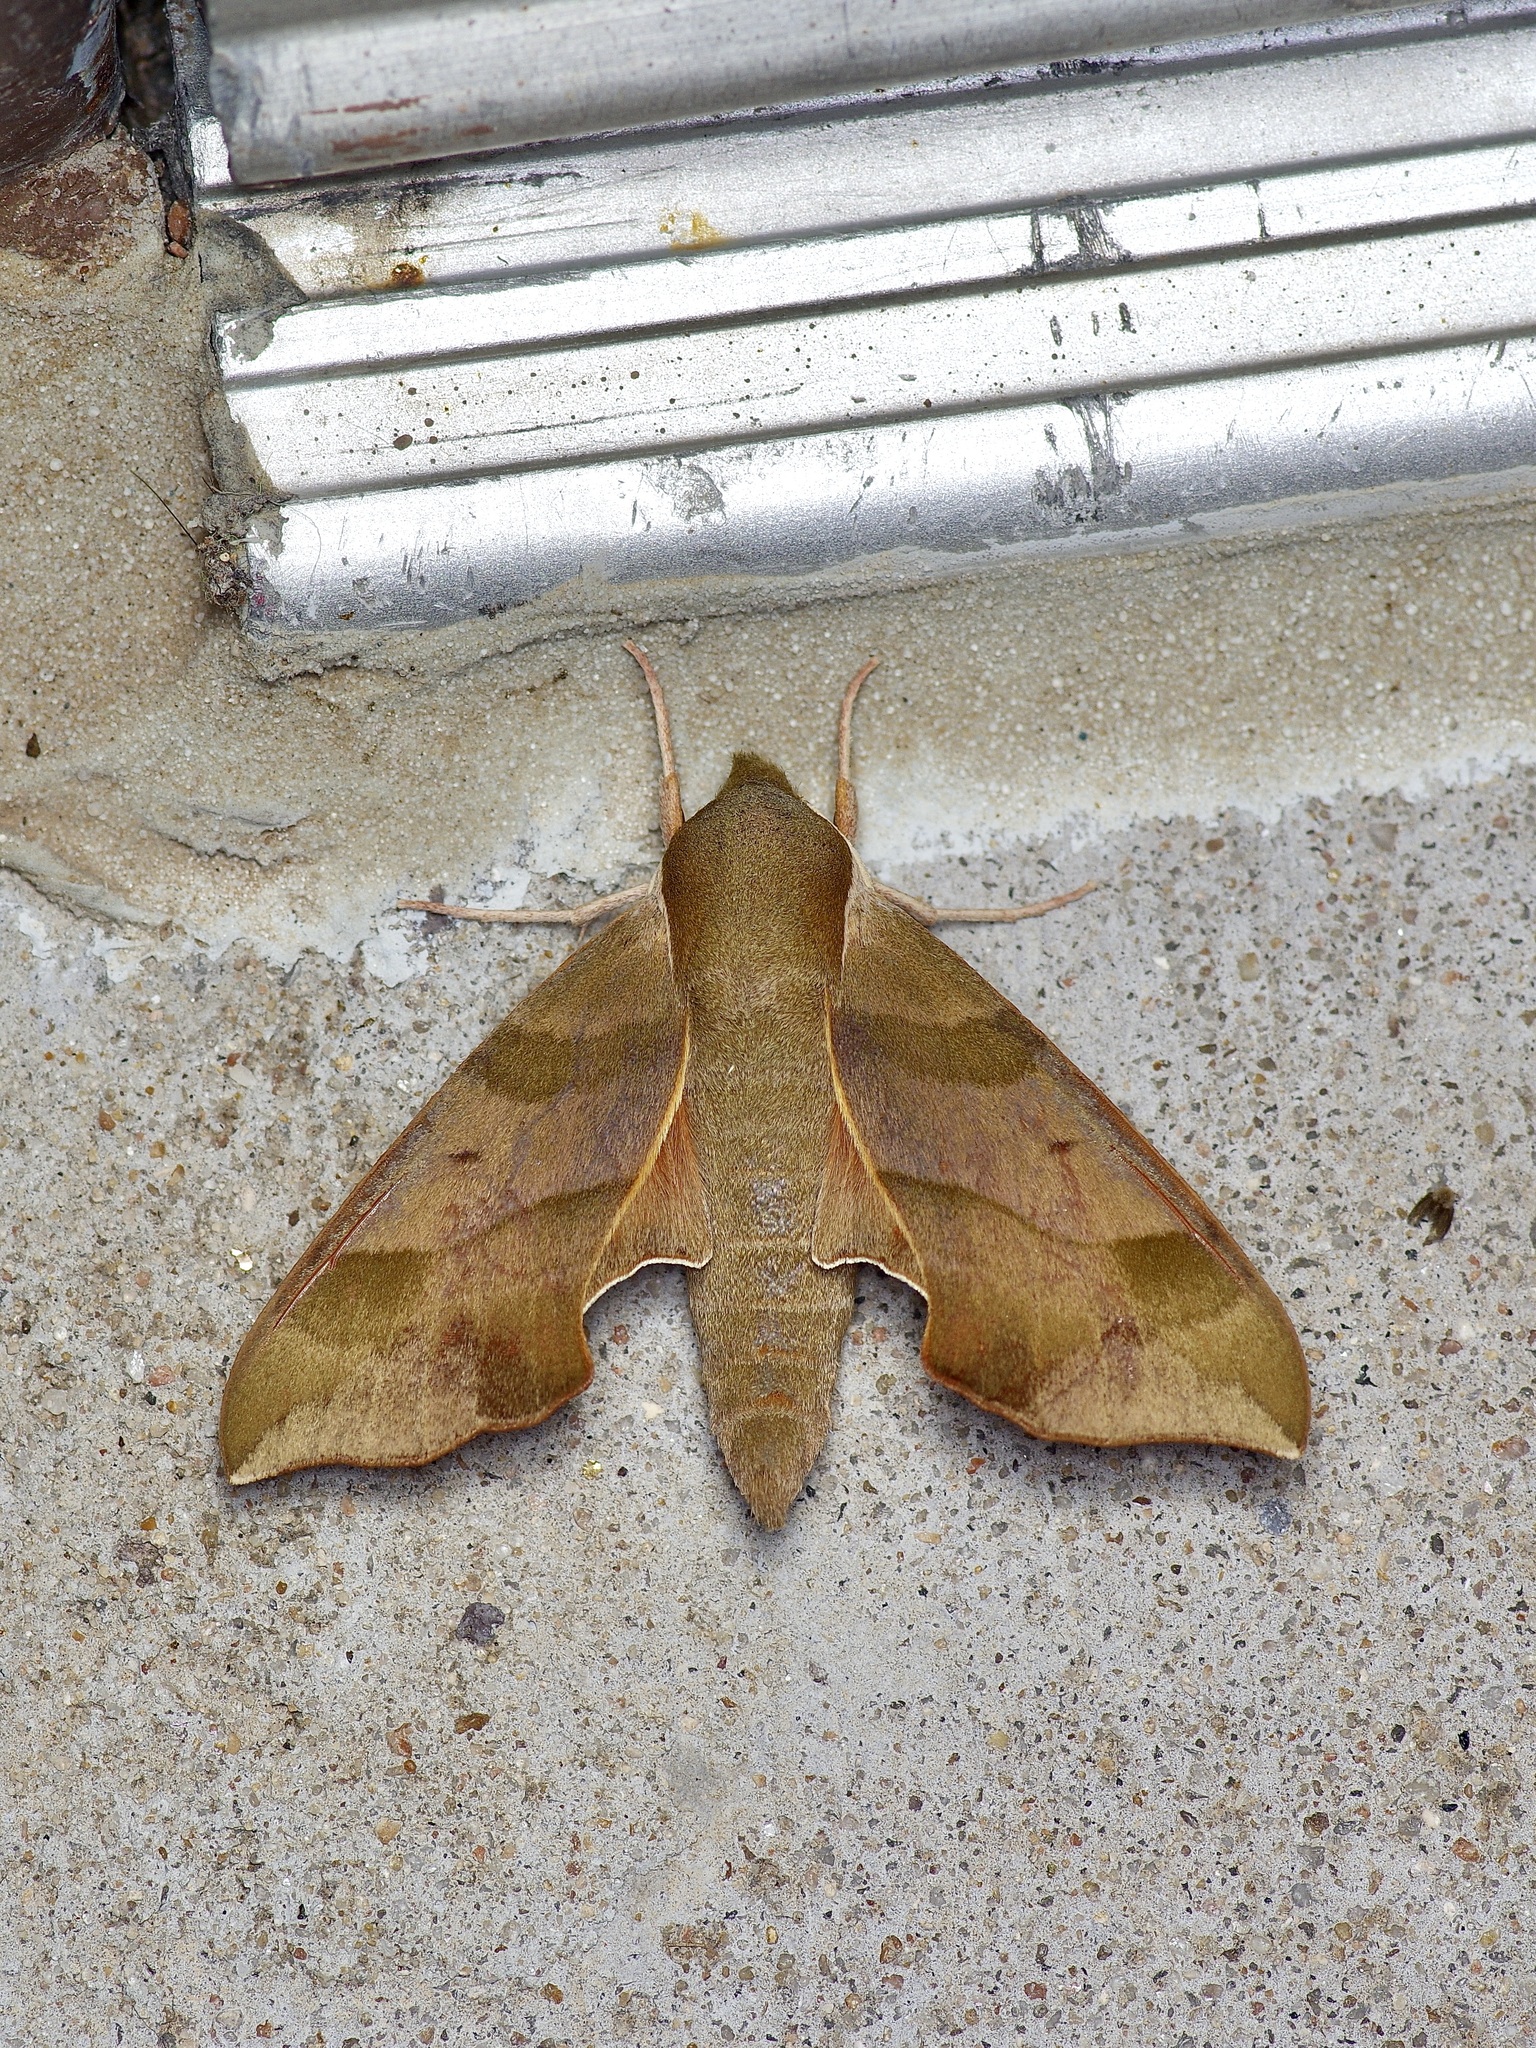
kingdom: Animalia
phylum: Arthropoda
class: Insecta
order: Lepidoptera
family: Sphingidae
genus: Darapsa
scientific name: Darapsa myron
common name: Hog sphinx
